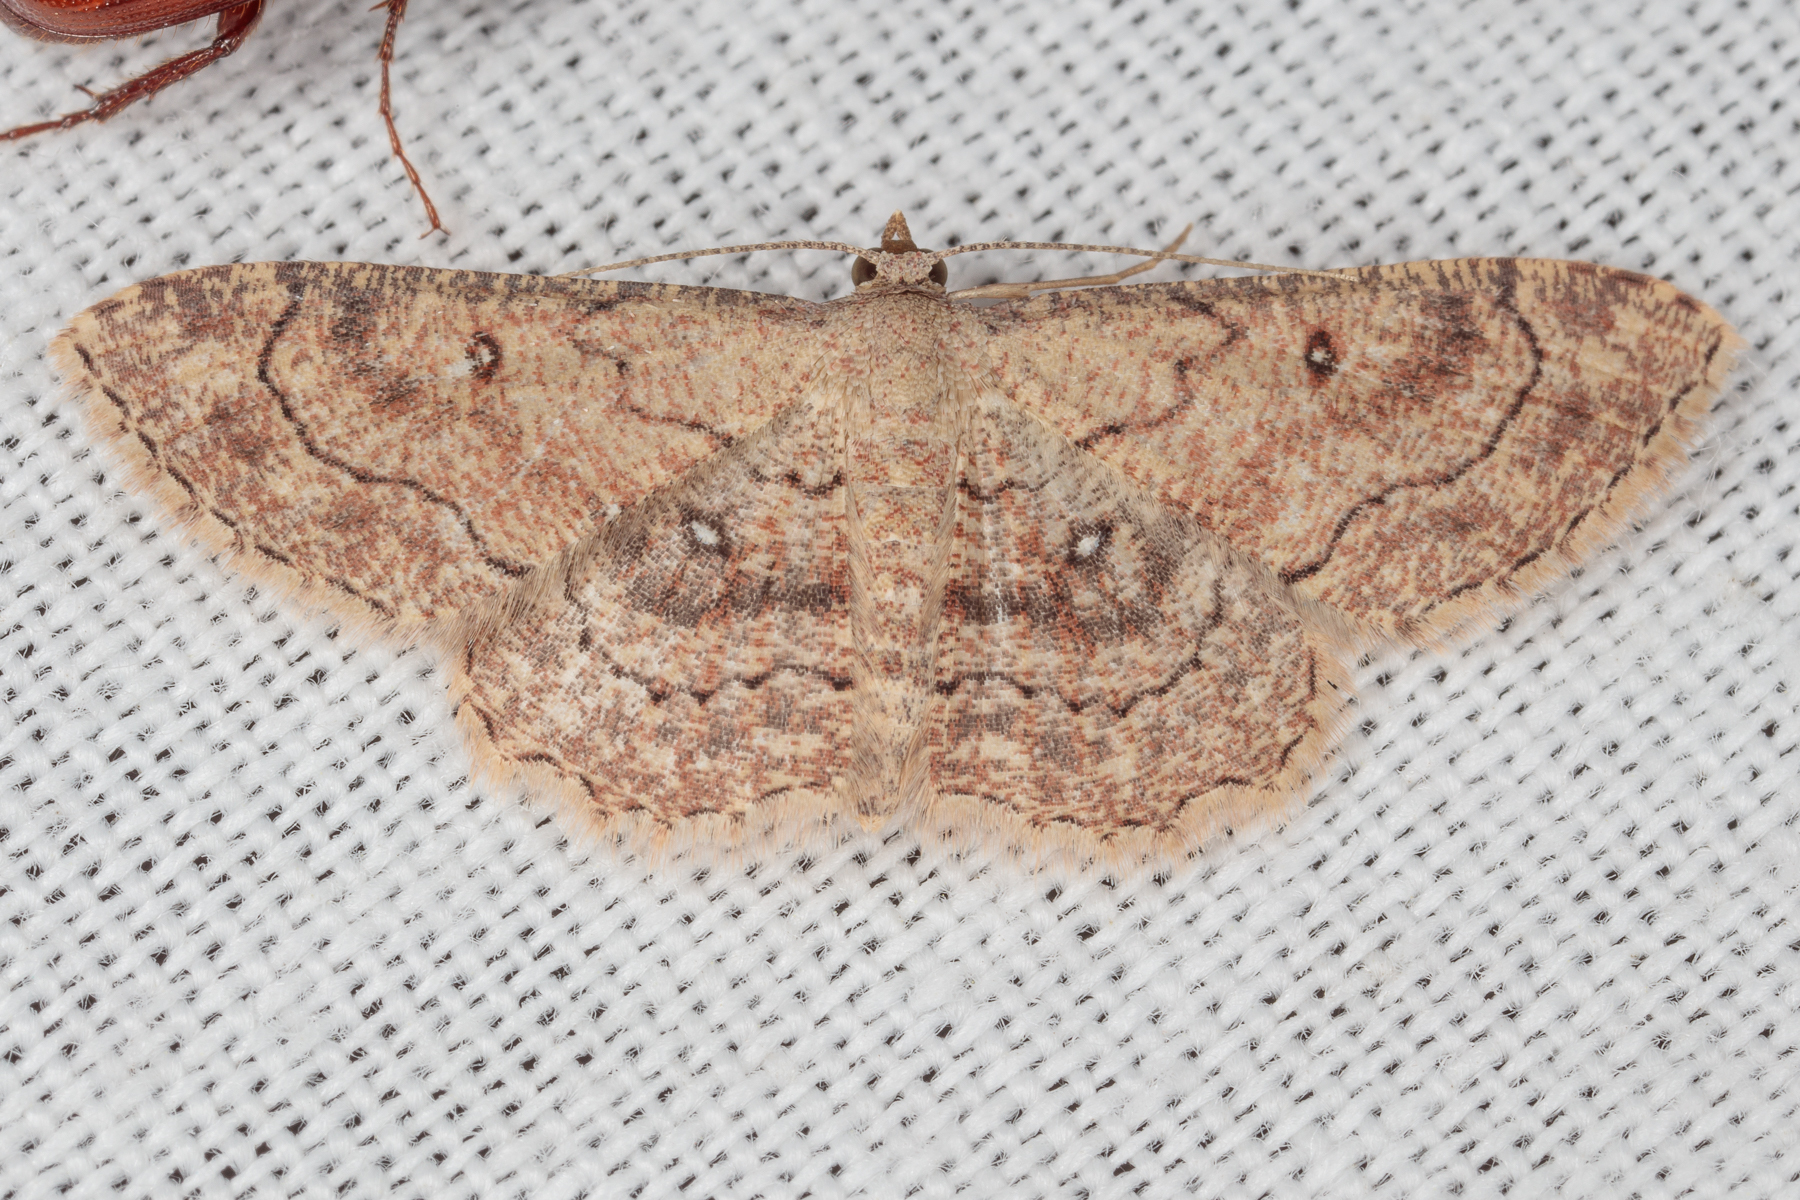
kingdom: Animalia
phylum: Arthropoda
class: Insecta
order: Lepidoptera
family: Geometridae
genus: Cyclophora
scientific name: Cyclophora nanaria
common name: Cankerworm
